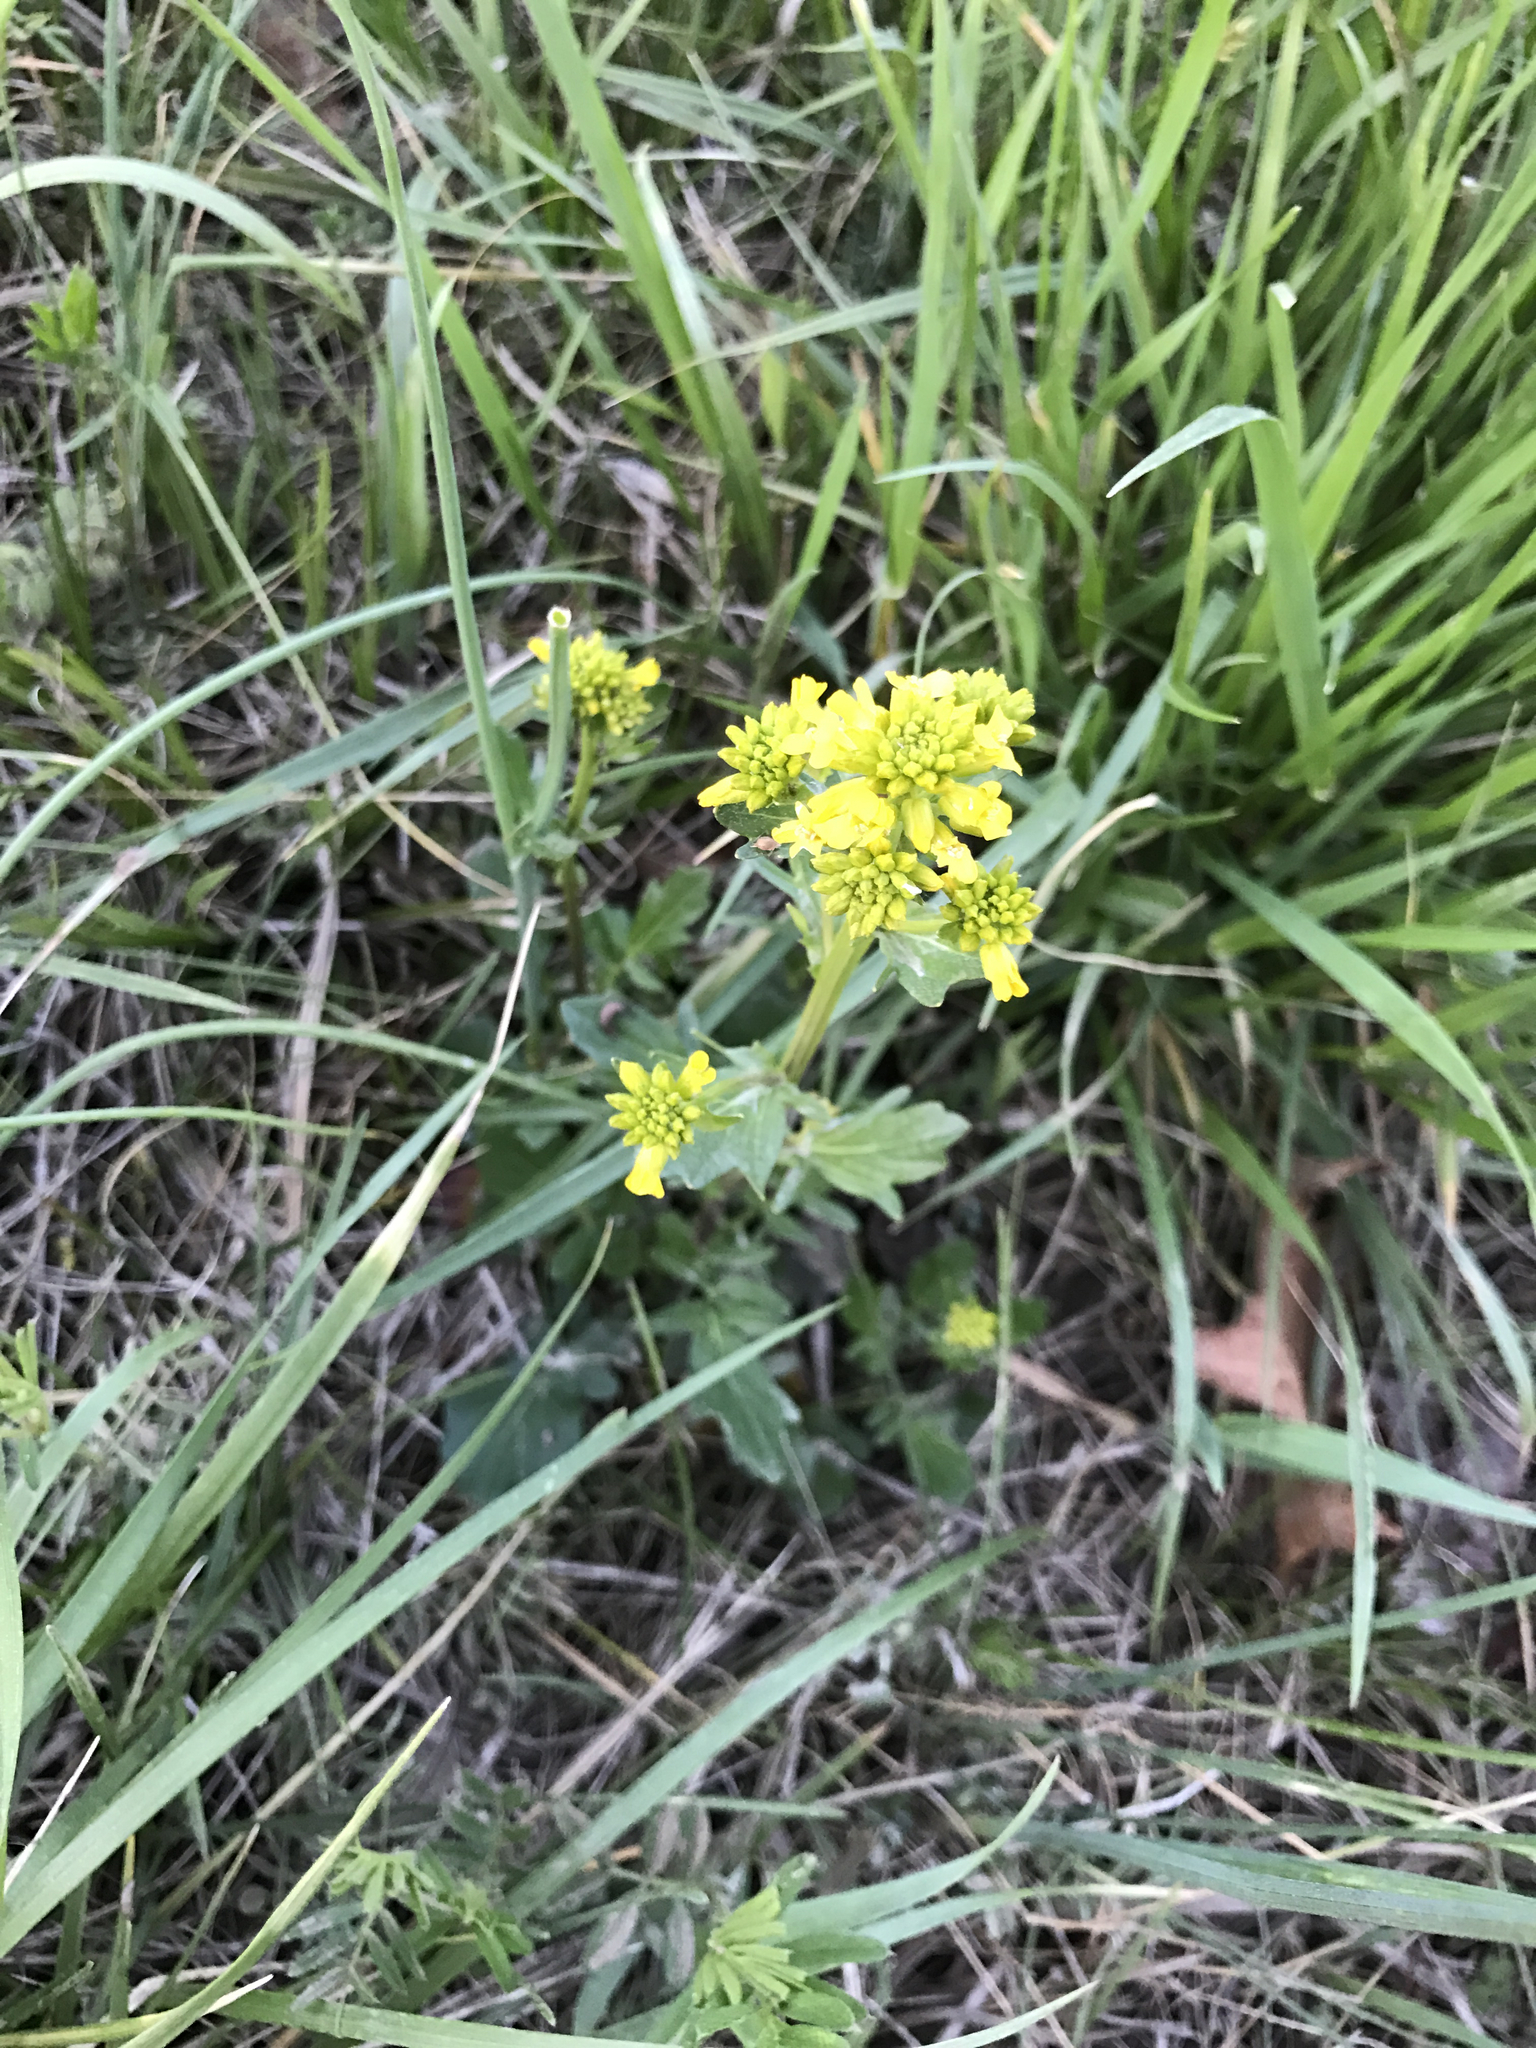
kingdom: Plantae
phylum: Tracheophyta
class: Magnoliopsida
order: Brassicales
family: Brassicaceae
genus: Barbarea
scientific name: Barbarea vulgaris
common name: Cressy-greens
